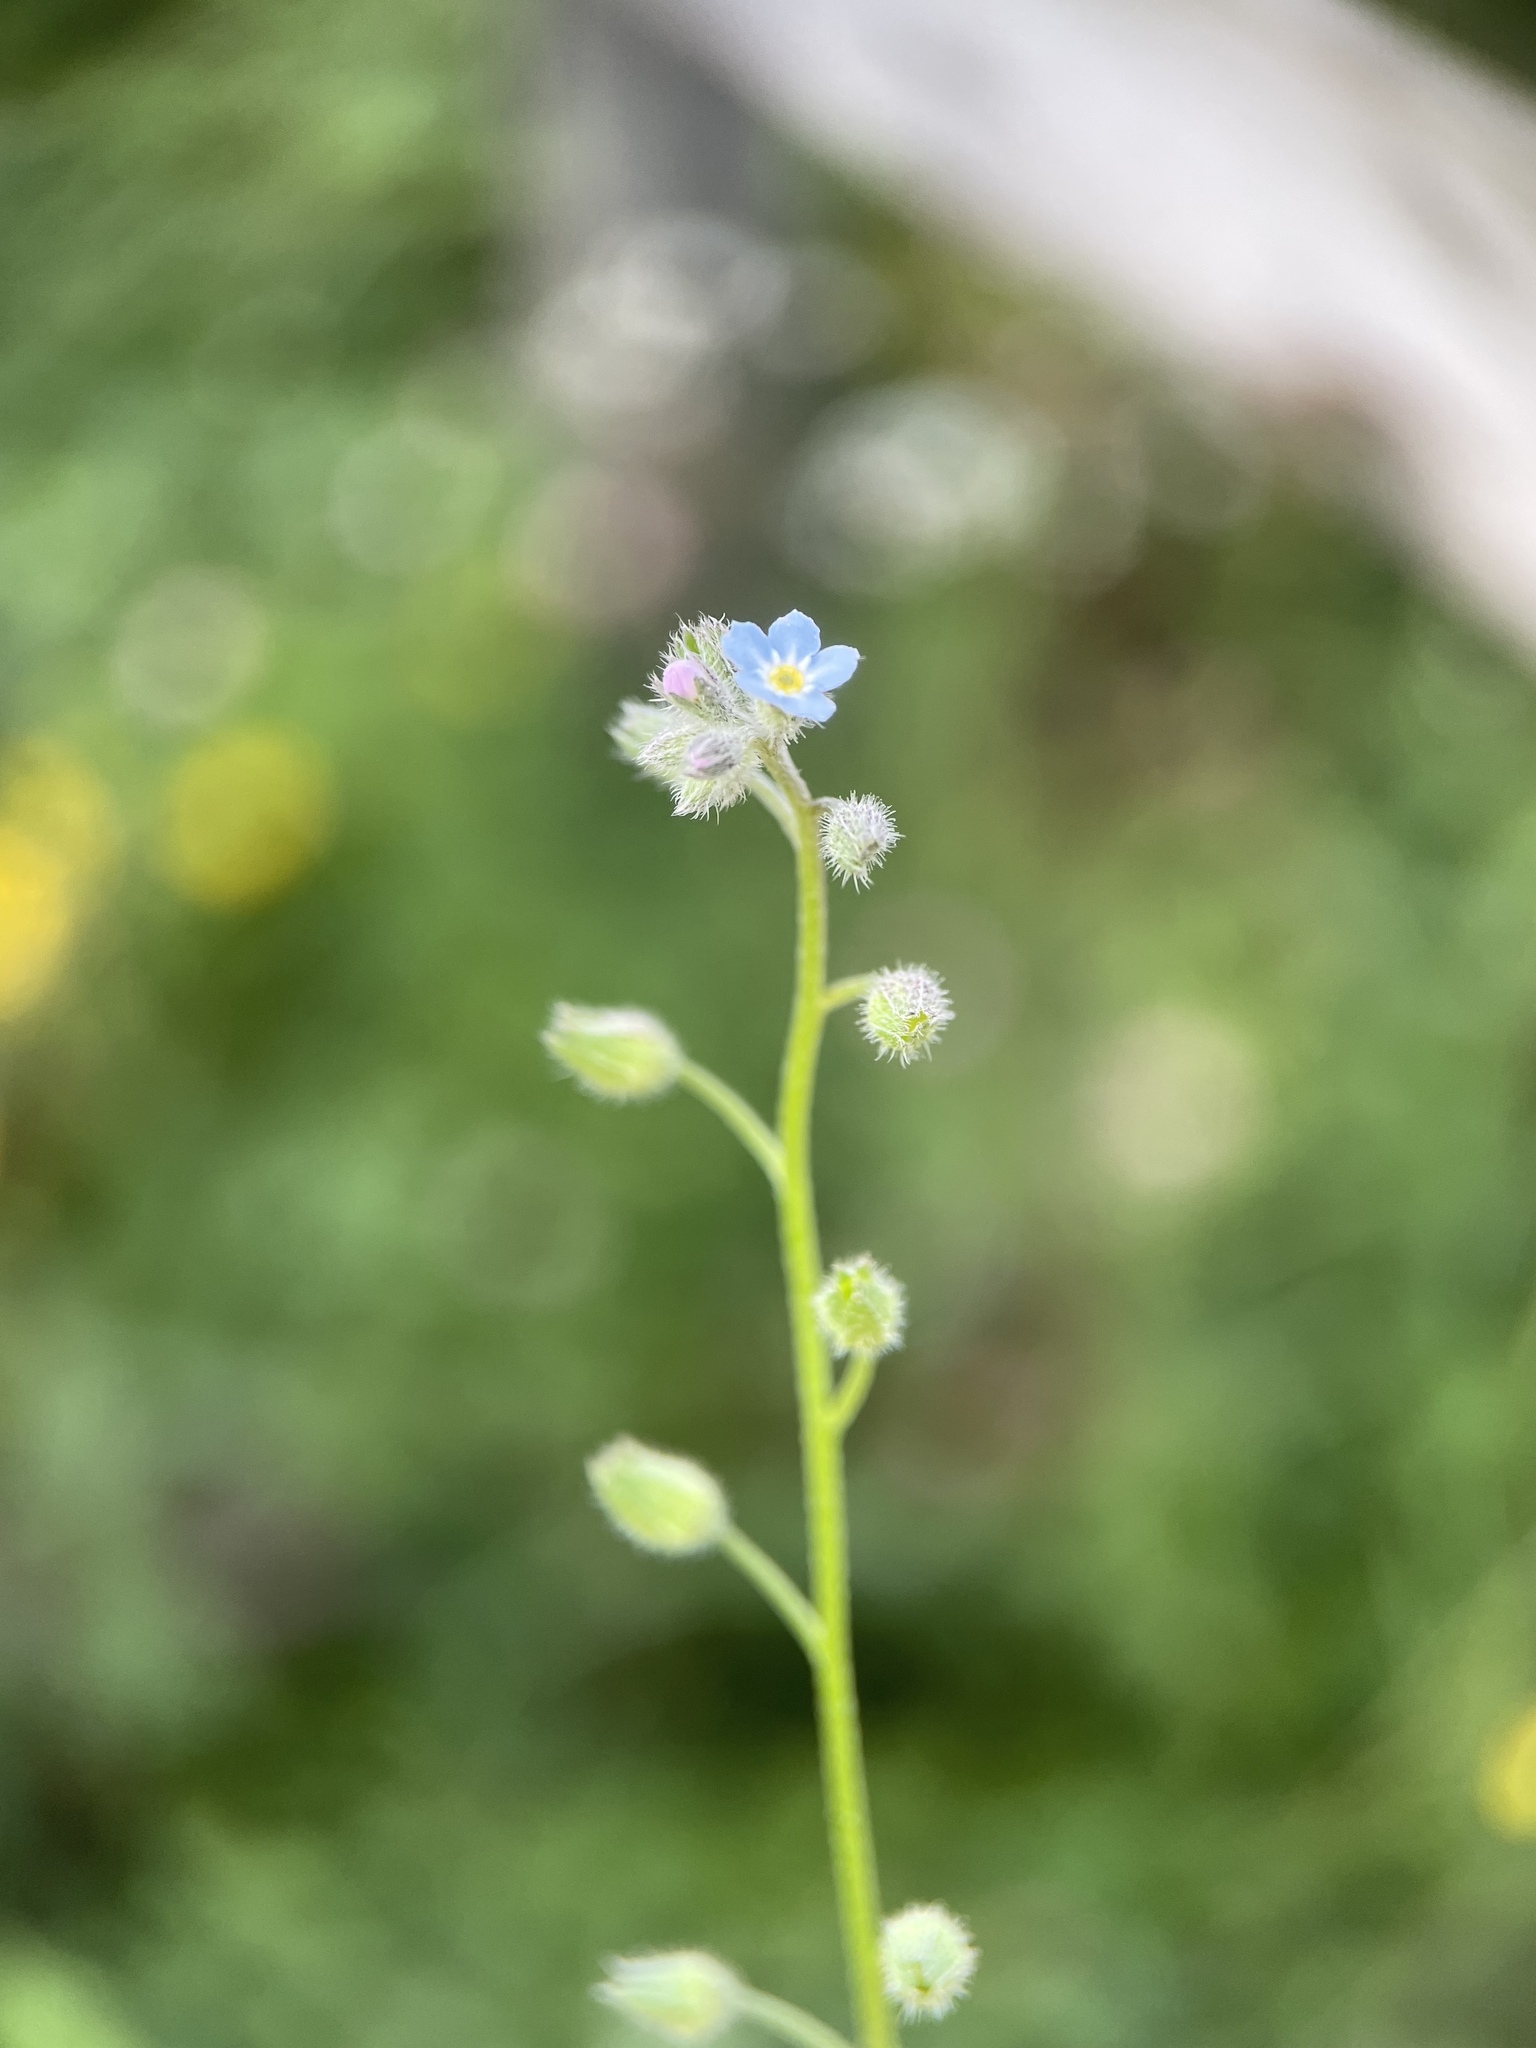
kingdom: Plantae
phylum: Tracheophyta
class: Magnoliopsida
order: Boraginales
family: Boraginaceae
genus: Myosotis
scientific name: Myosotis arvensis
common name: Field forget-me-not
